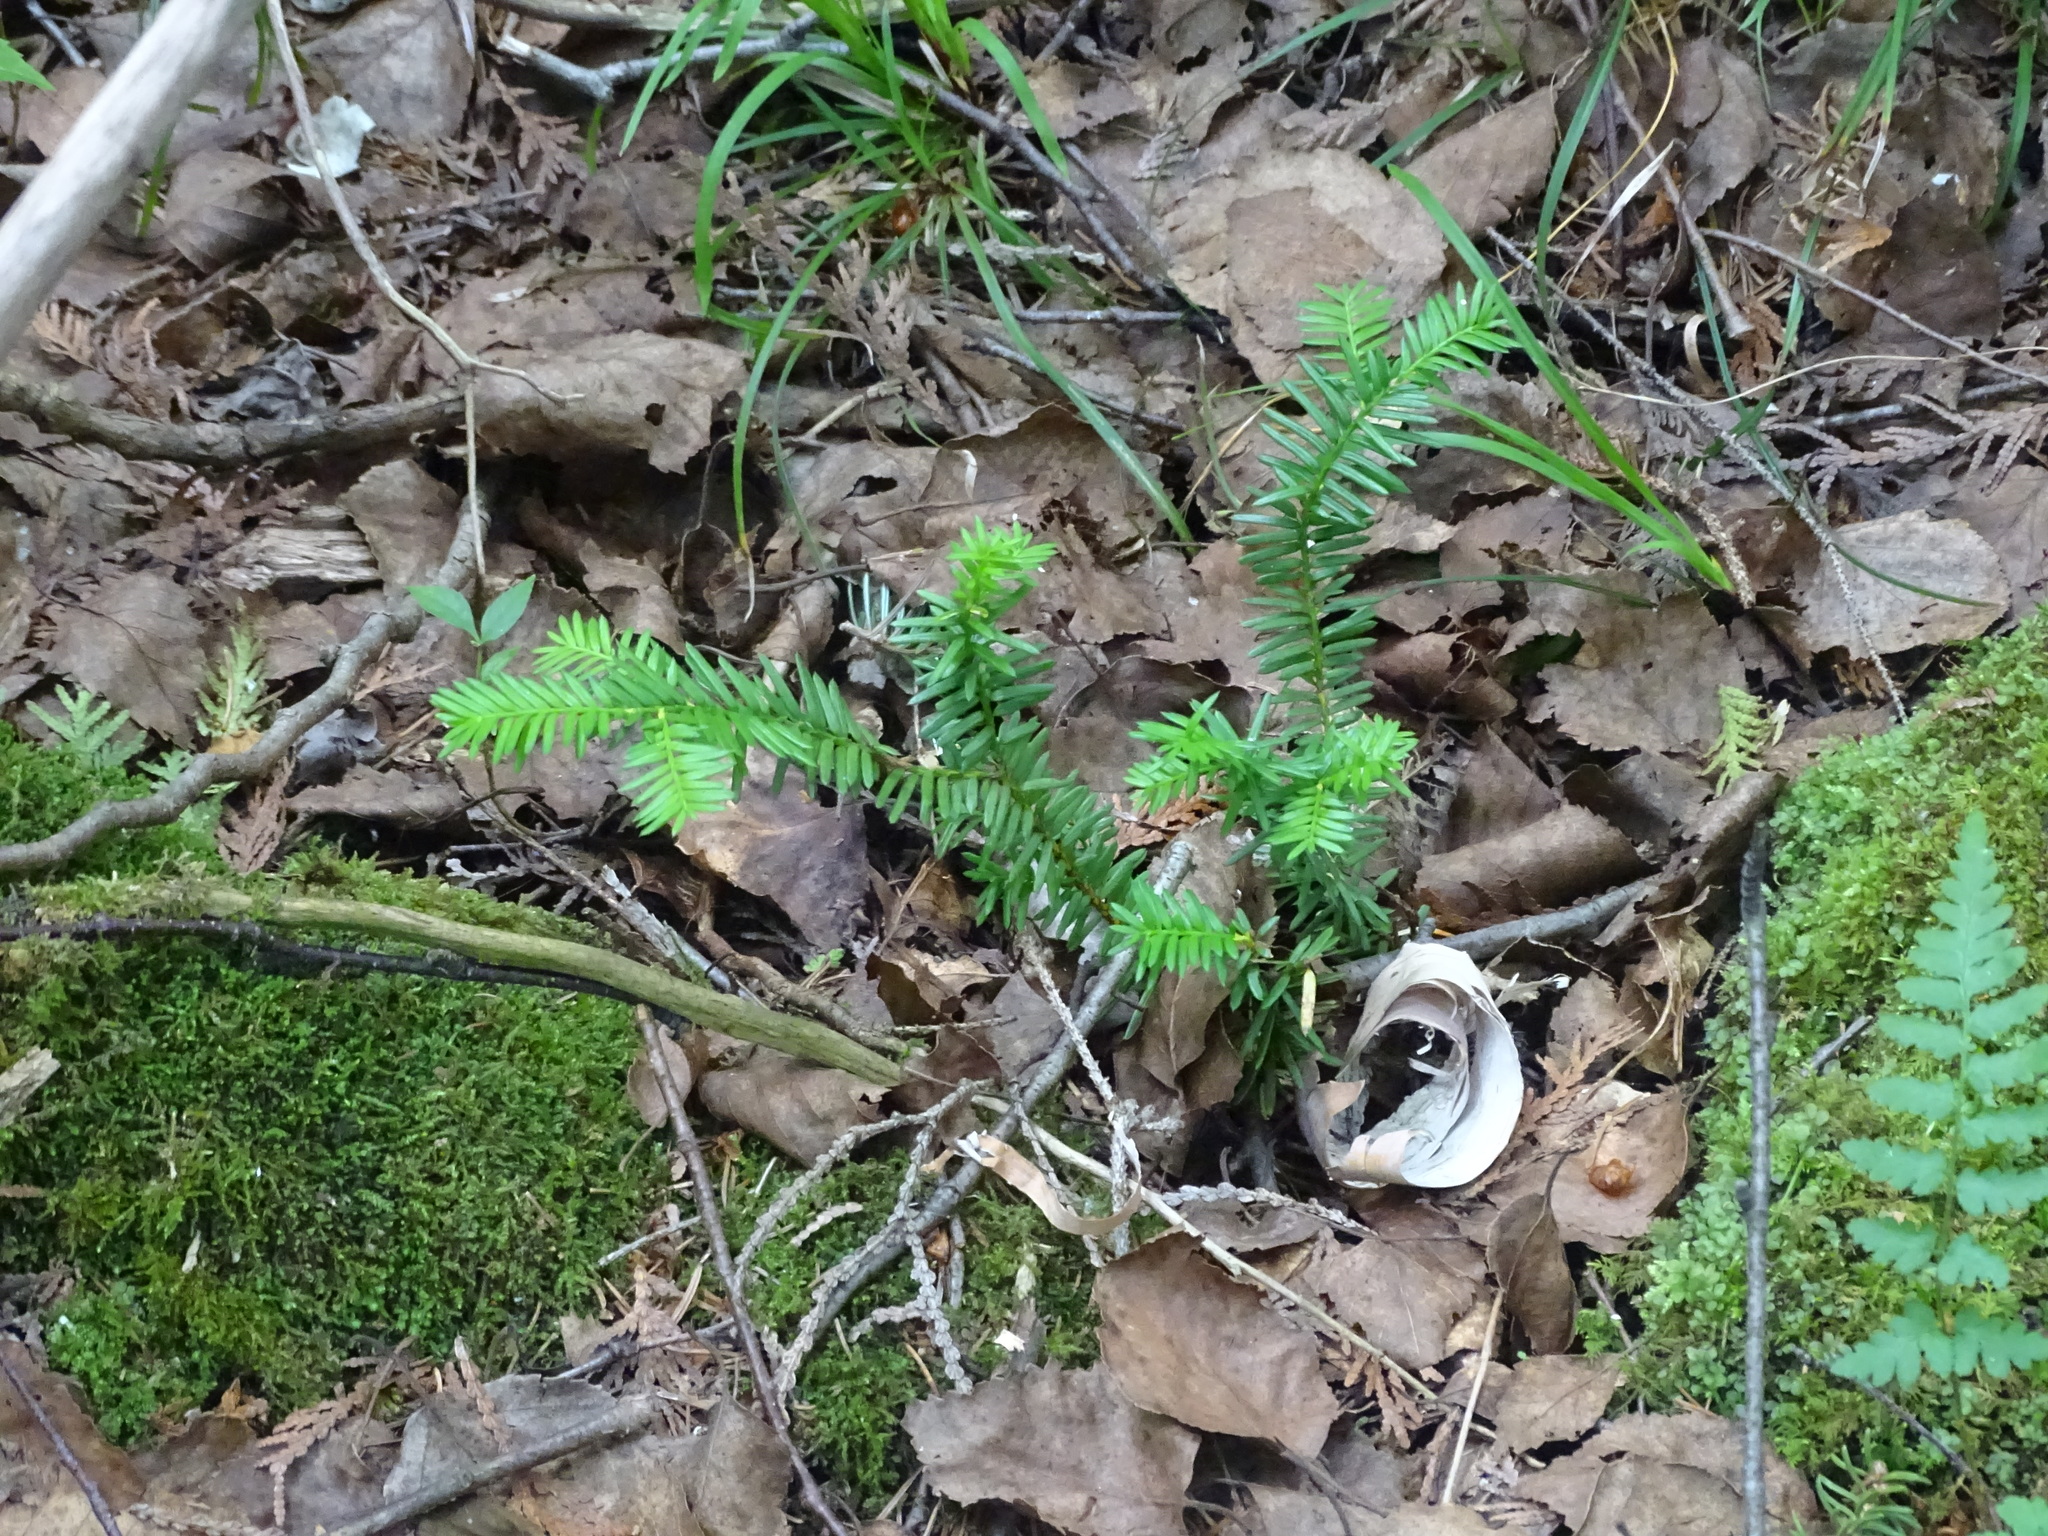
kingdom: Plantae
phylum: Tracheophyta
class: Pinopsida
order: Pinales
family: Taxaceae
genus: Taxus
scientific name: Taxus canadensis
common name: American yew
